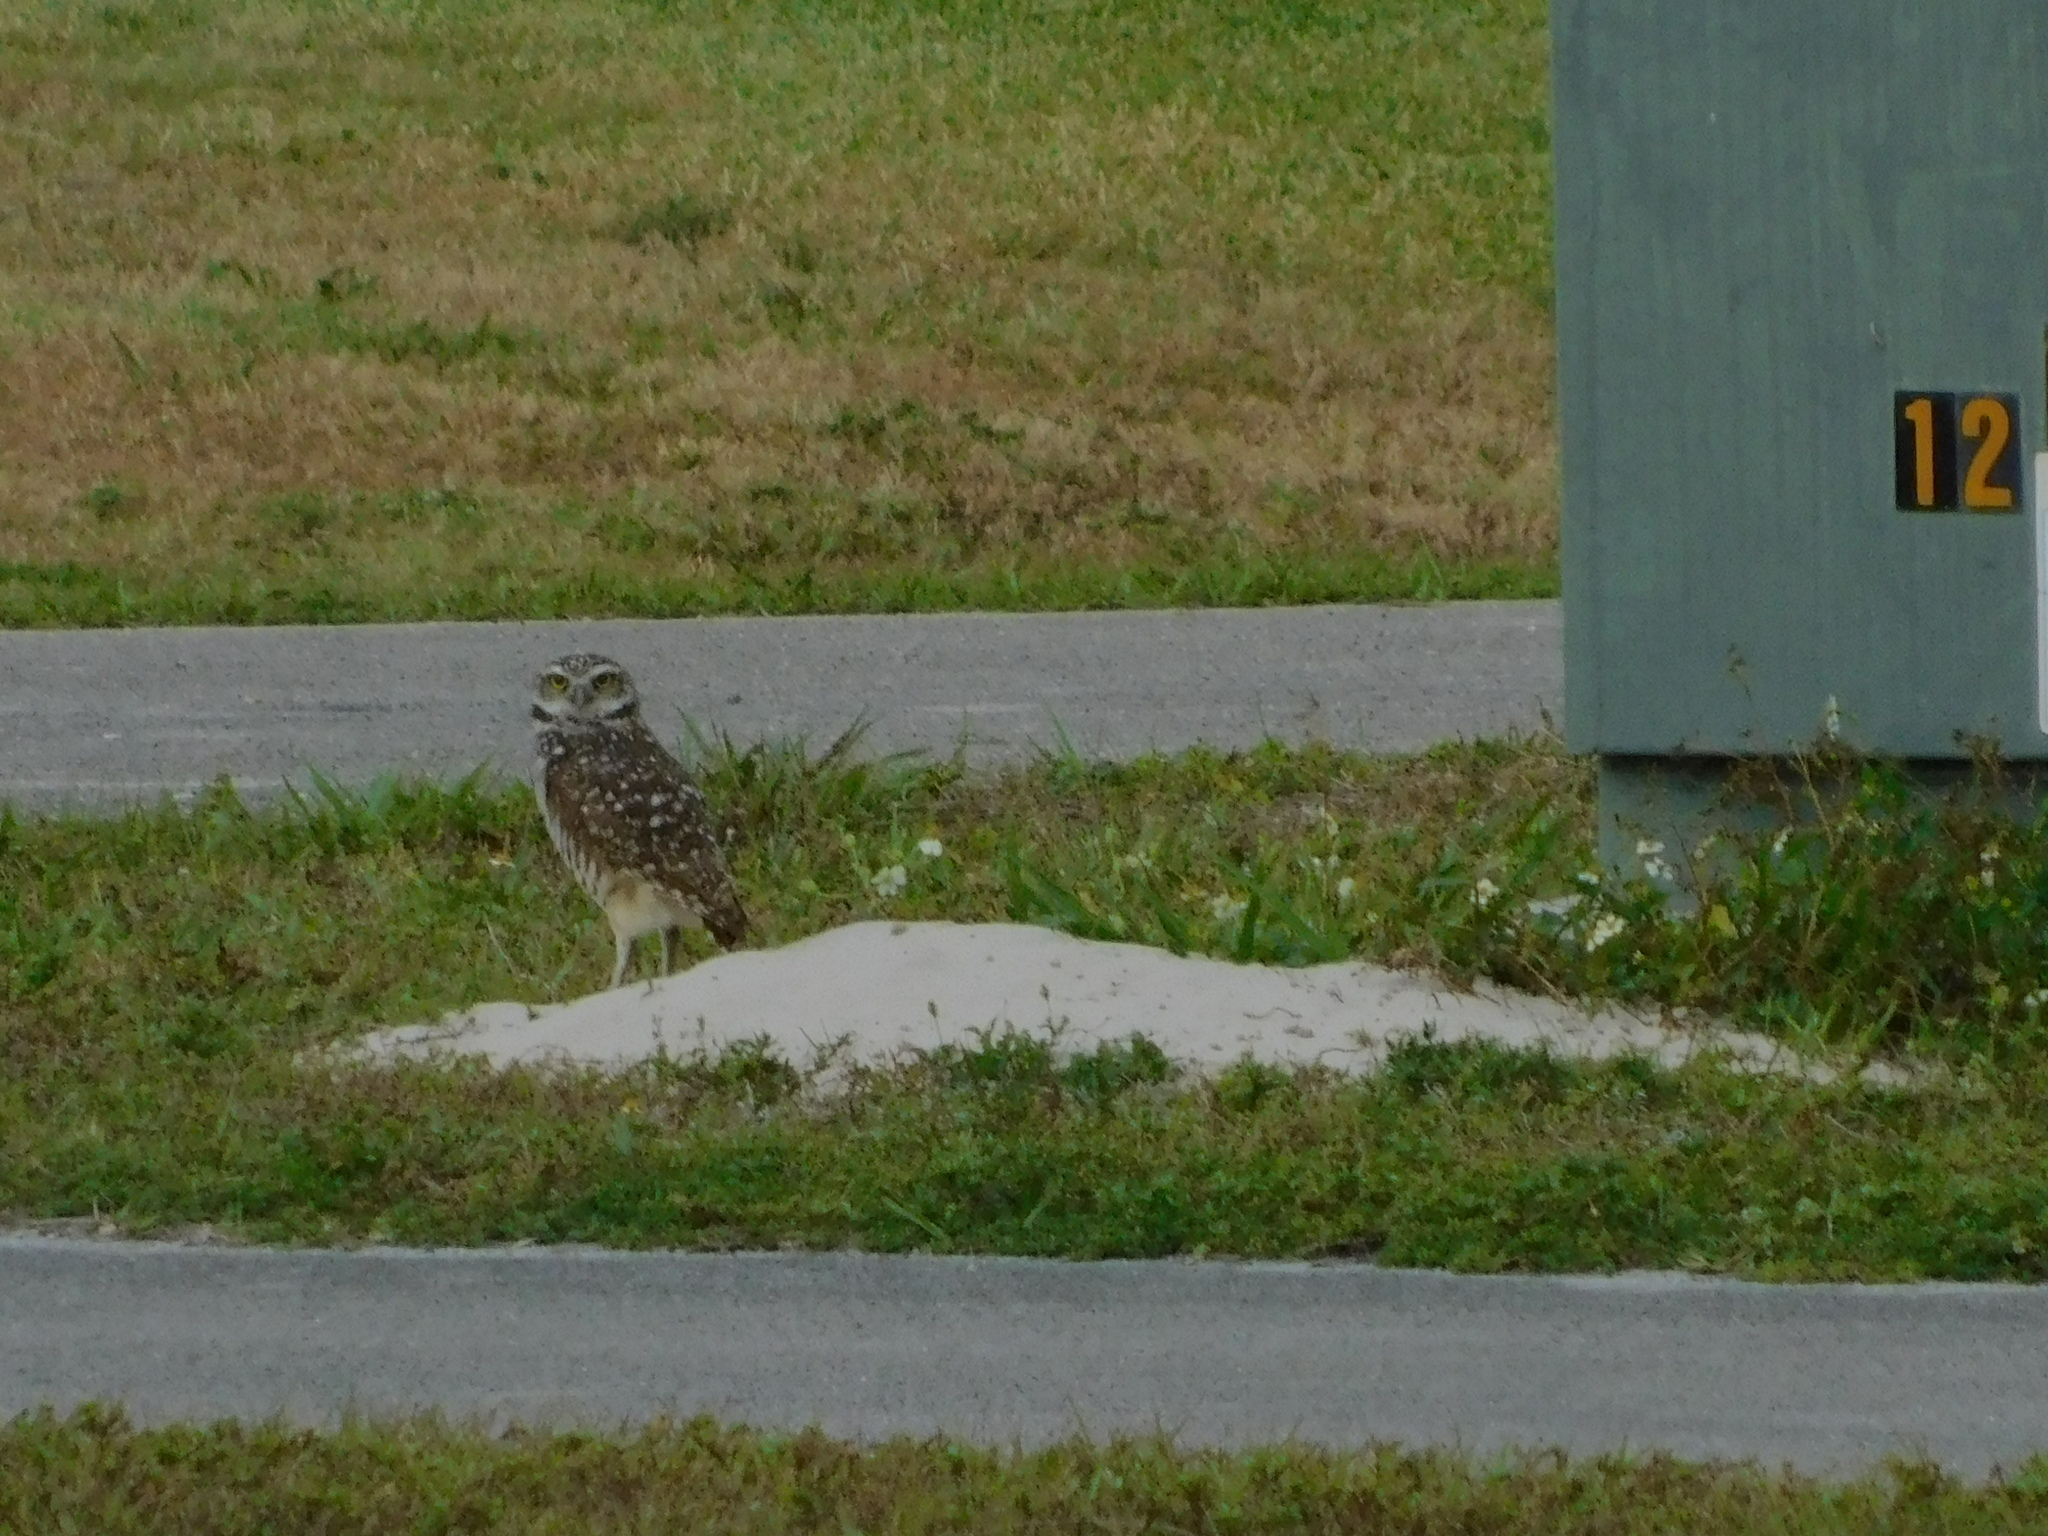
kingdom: Animalia
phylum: Chordata
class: Aves
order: Strigiformes
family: Strigidae
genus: Athene
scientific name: Athene cunicularia
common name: Burrowing owl
